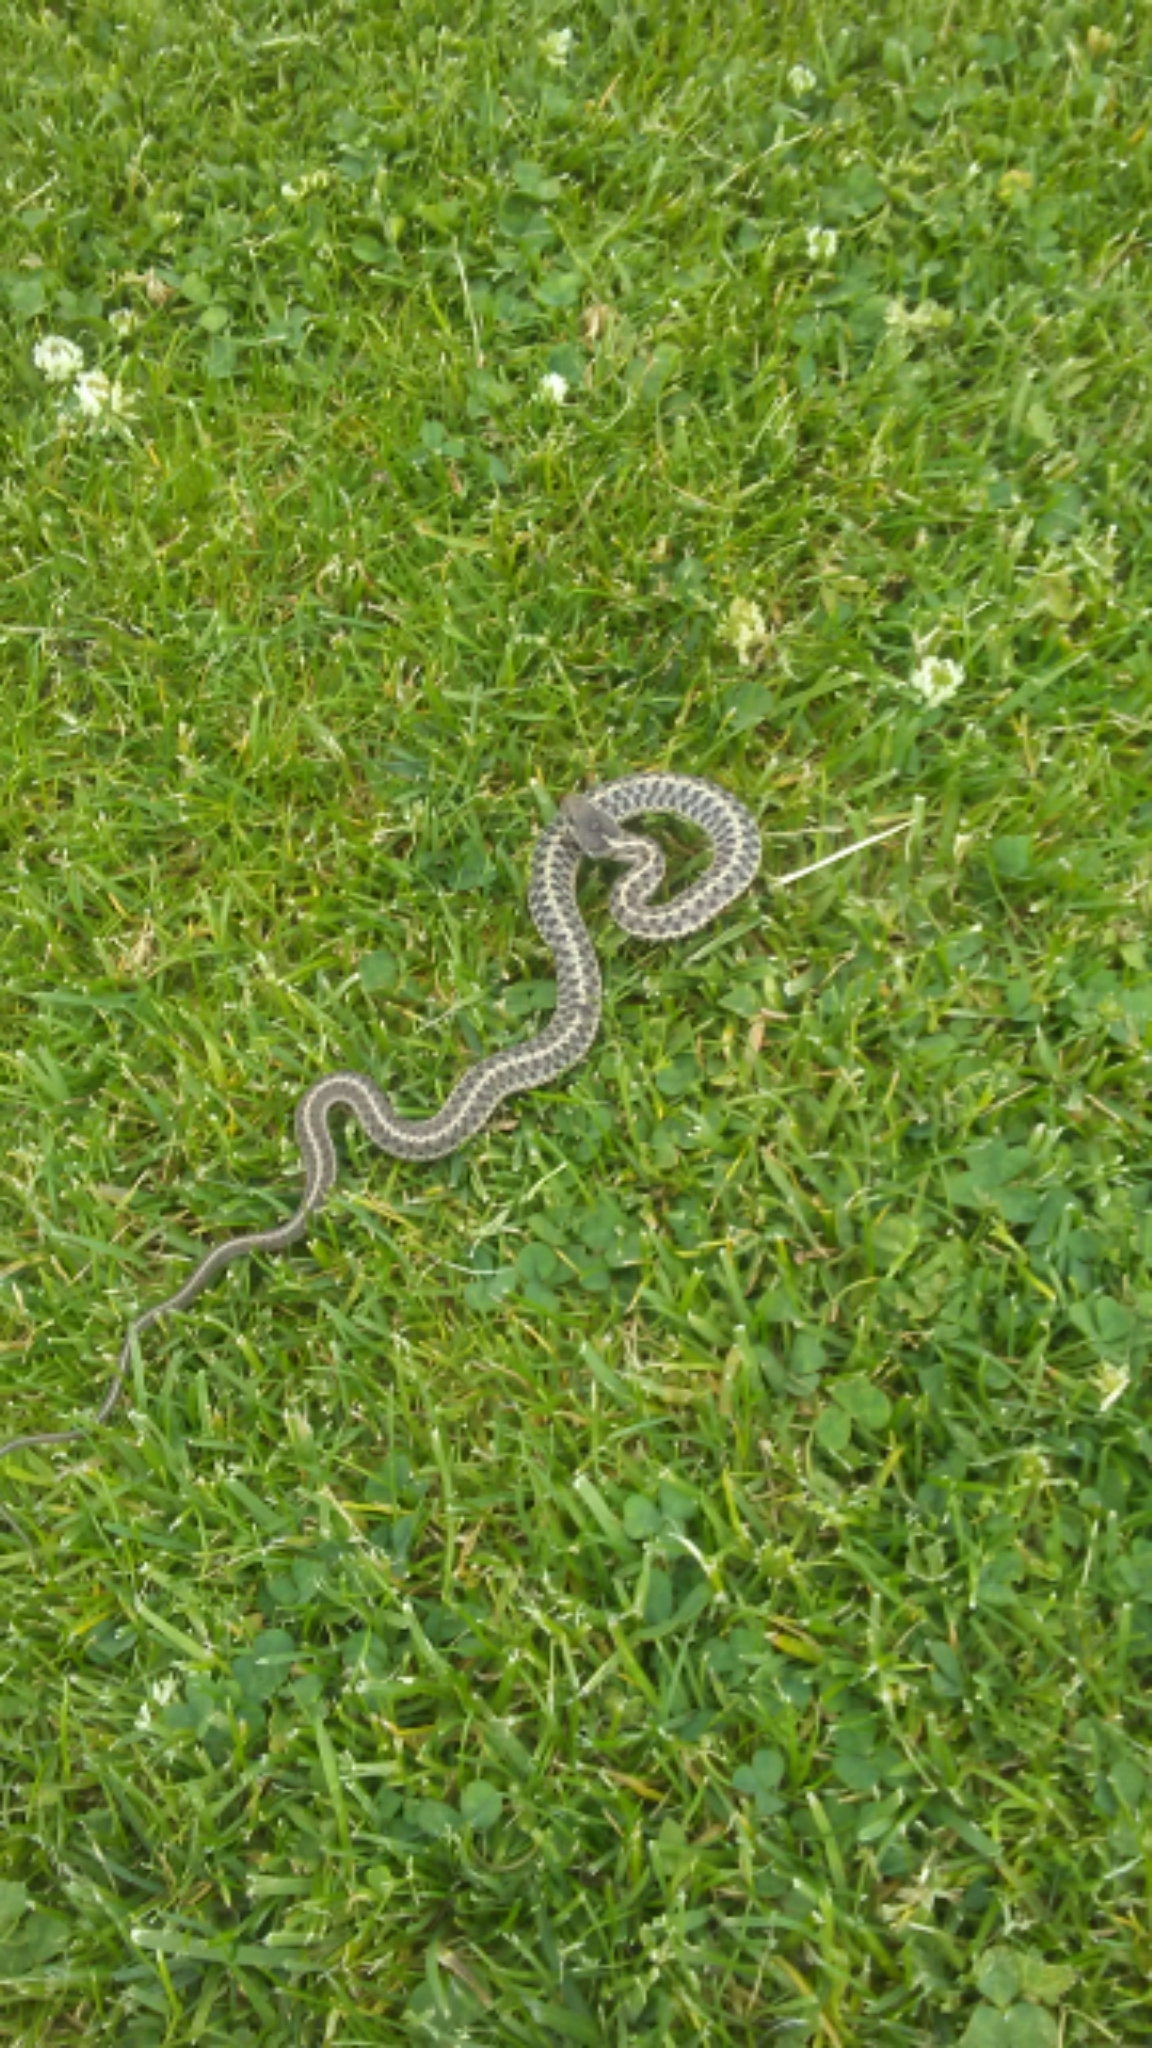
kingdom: Animalia
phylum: Chordata
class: Squamata
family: Colubridae
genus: Thamnophis
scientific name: Thamnophis elegans
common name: Western terrestrial garter snake
